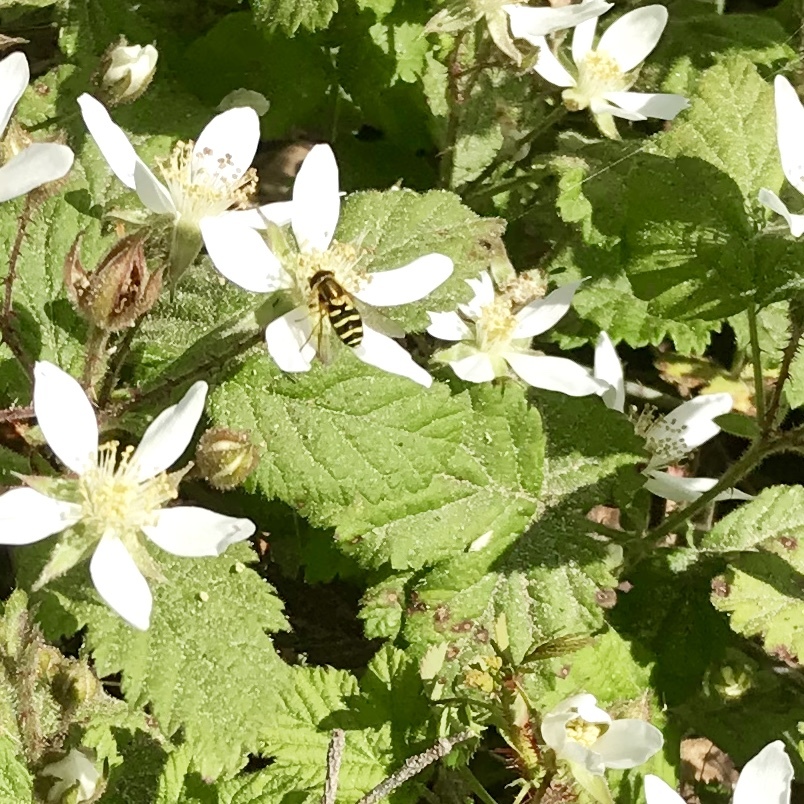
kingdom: Animalia
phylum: Arthropoda
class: Insecta
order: Diptera
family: Syrphidae
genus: Syrphus
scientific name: Syrphus opinator
